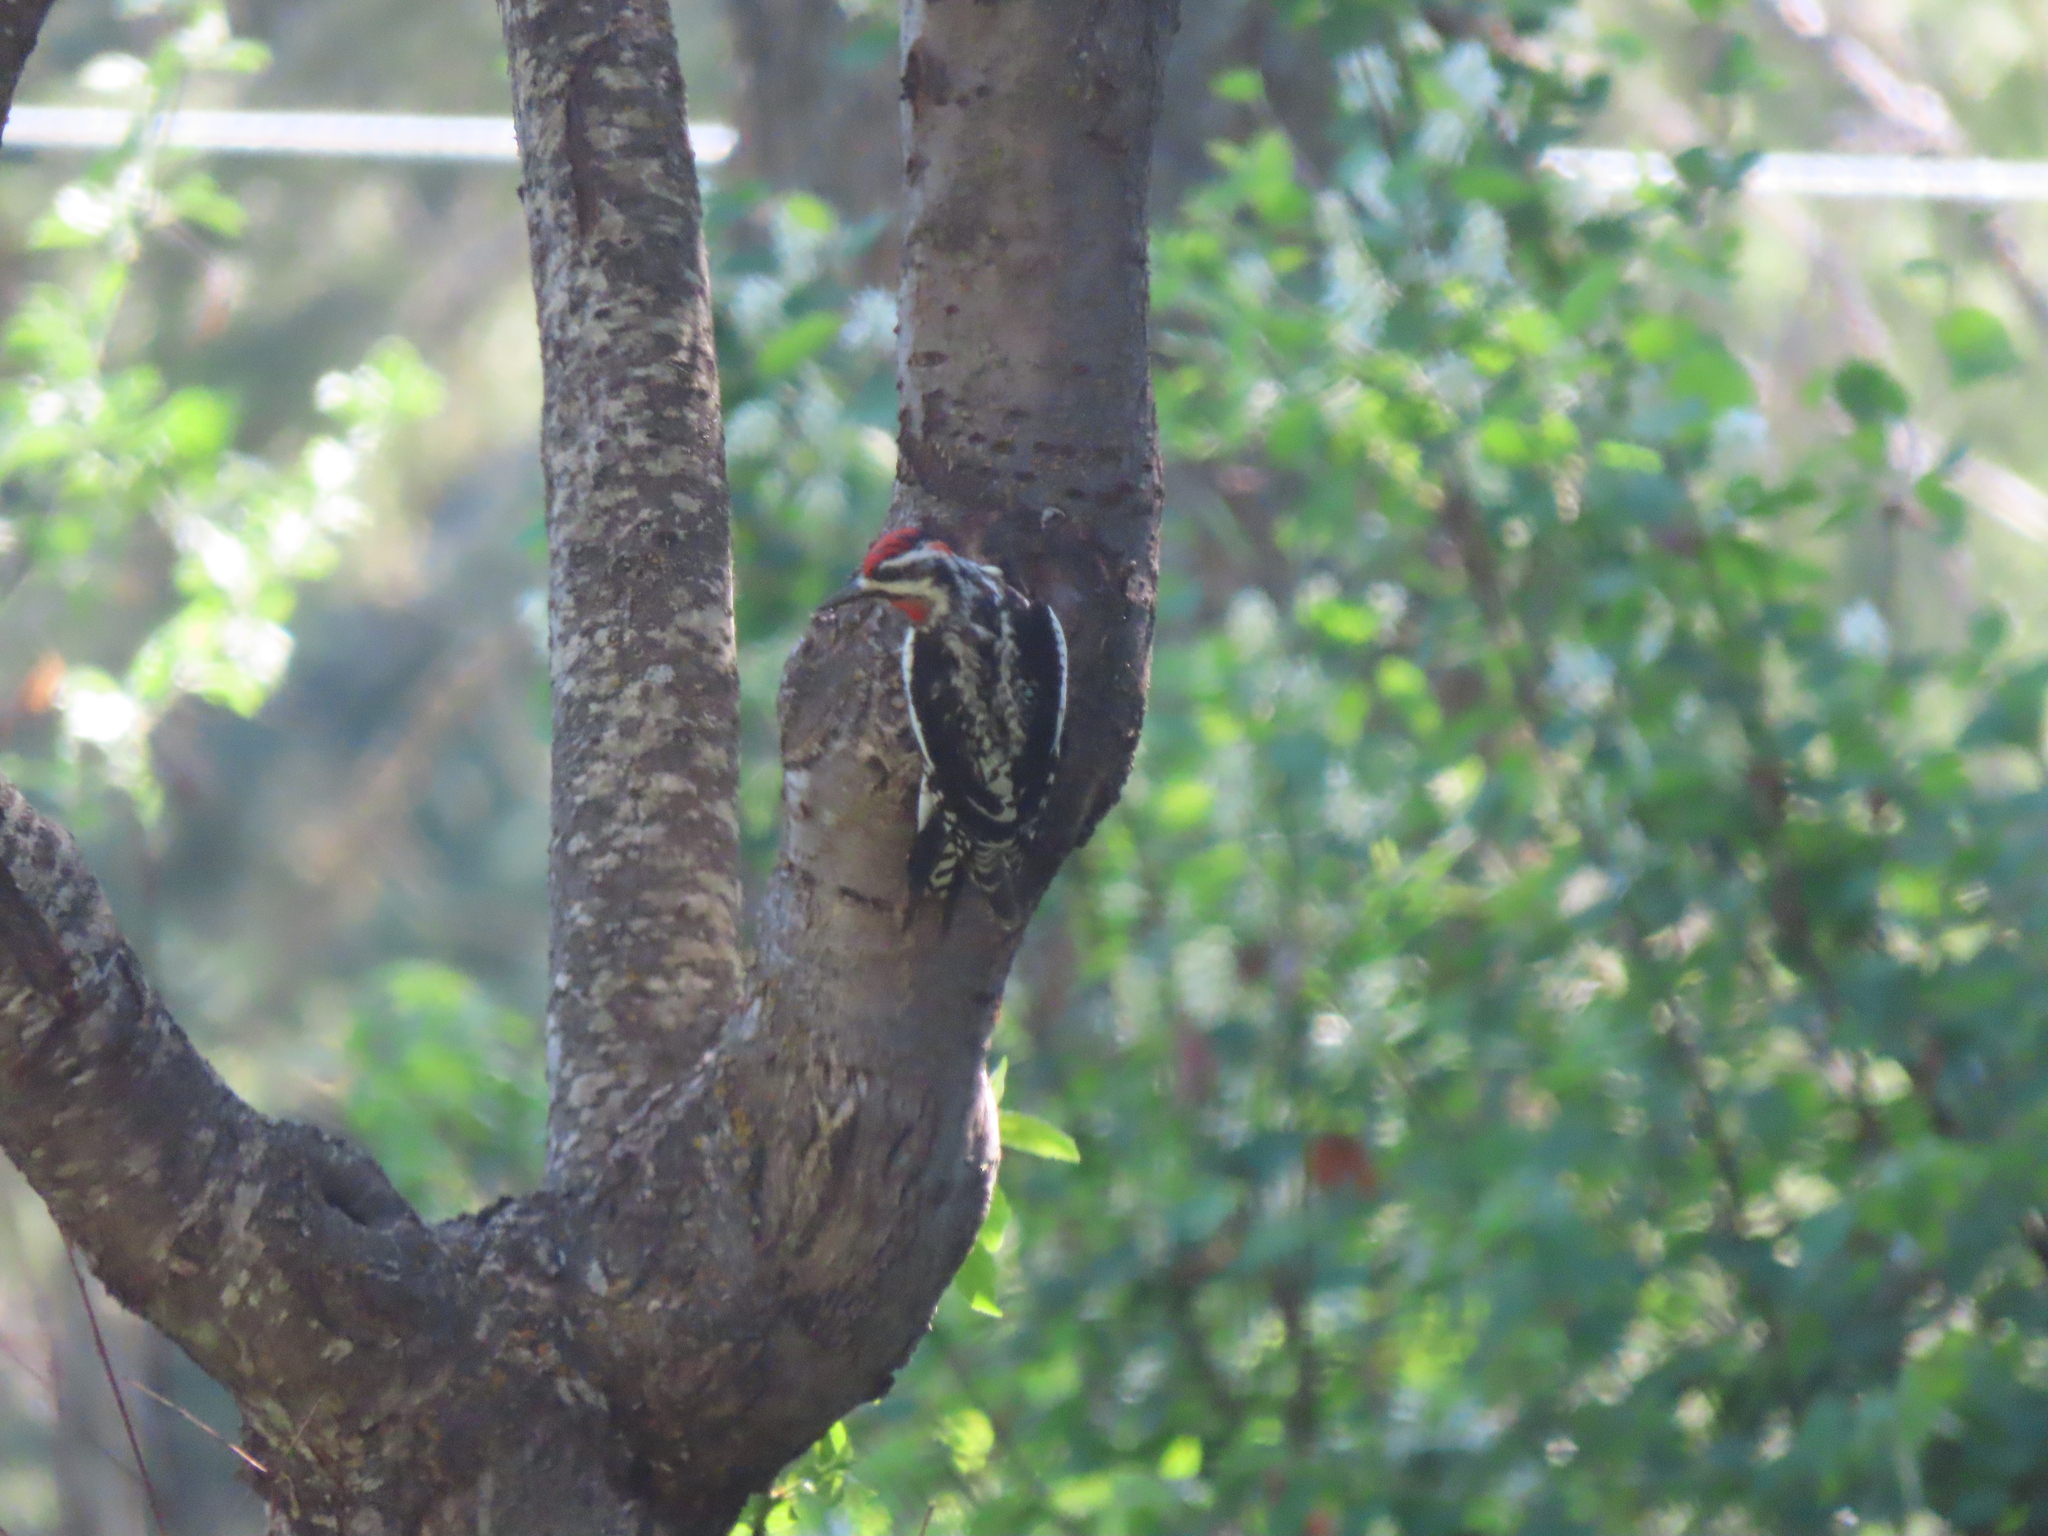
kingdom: Animalia
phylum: Chordata
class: Aves
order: Piciformes
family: Picidae
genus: Sphyrapicus
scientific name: Sphyrapicus nuchalis
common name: Red-naped sapsucker
